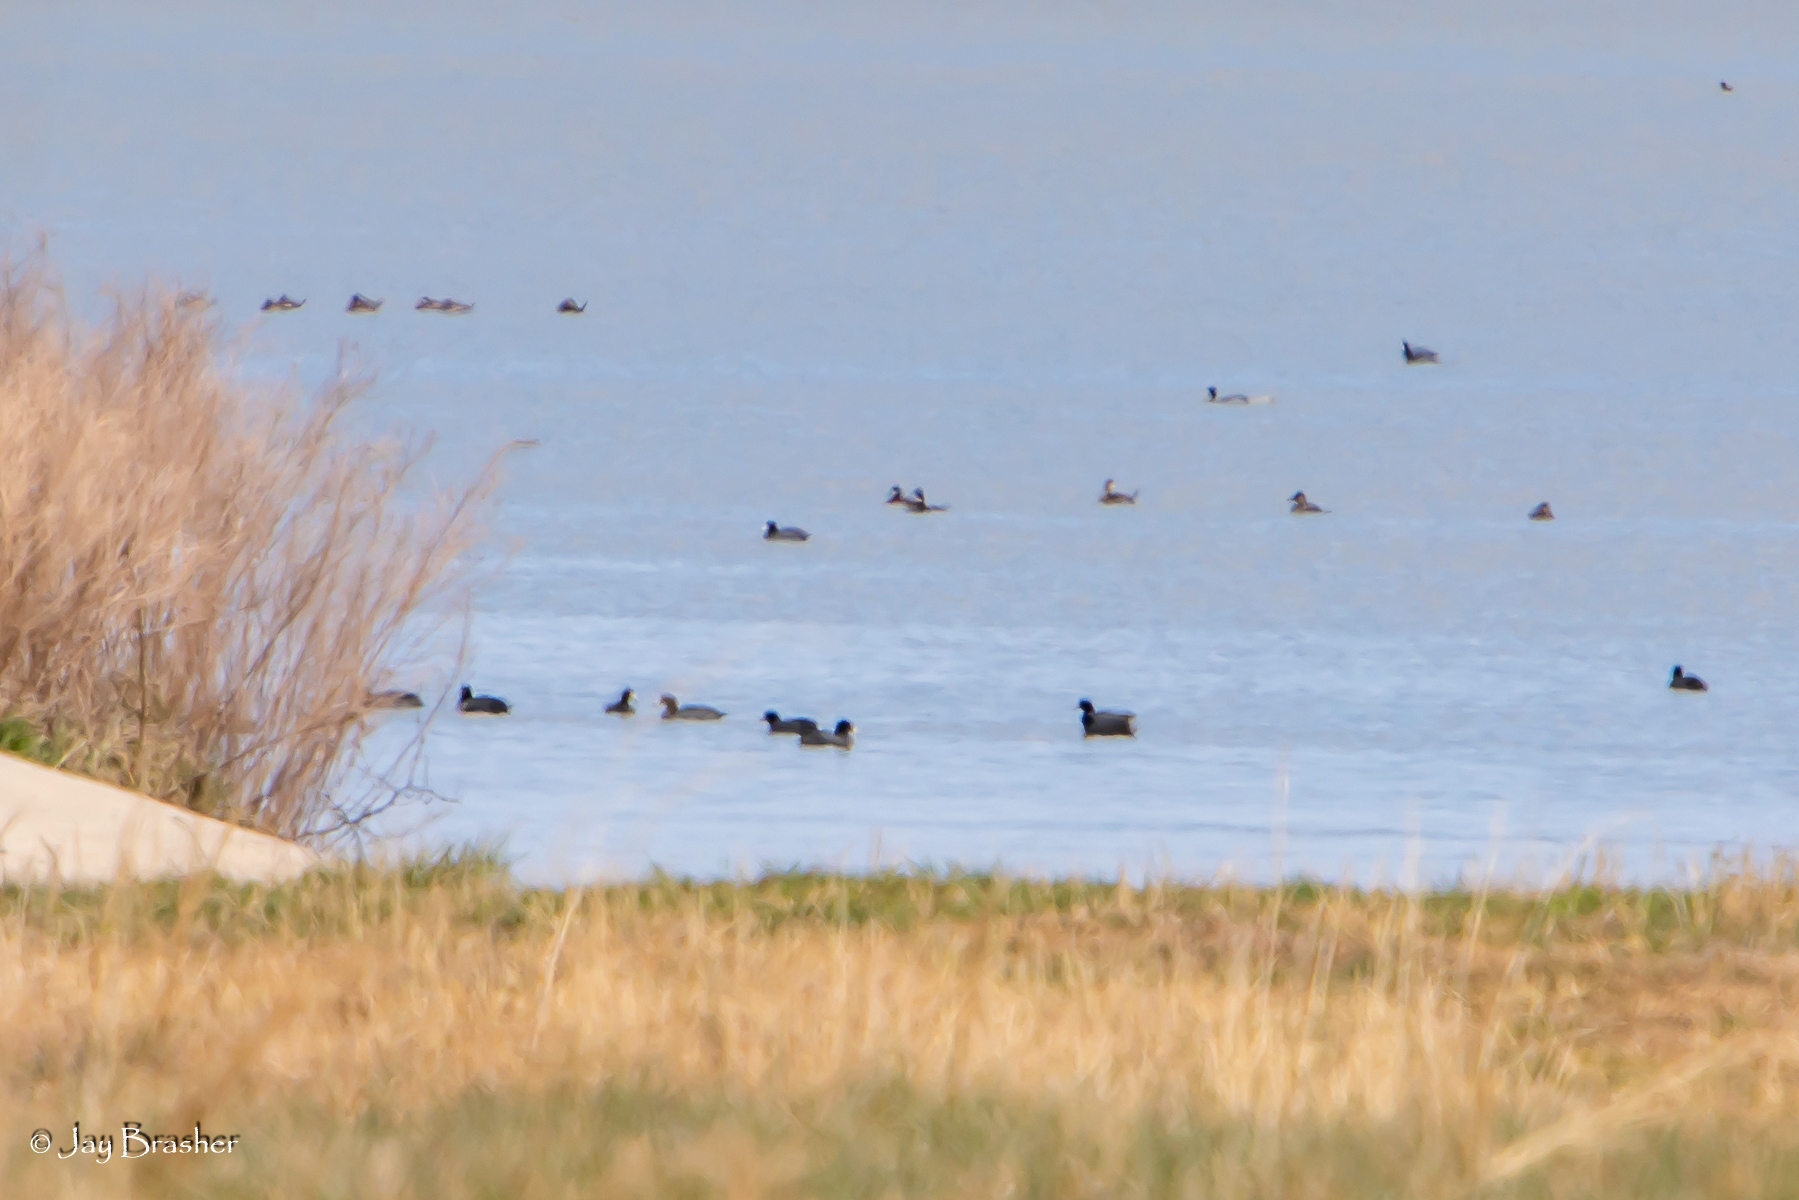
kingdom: Animalia
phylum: Chordata
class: Aves
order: Anseriformes
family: Anatidae
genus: Oxyura
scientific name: Oxyura jamaicensis
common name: Ruddy duck
